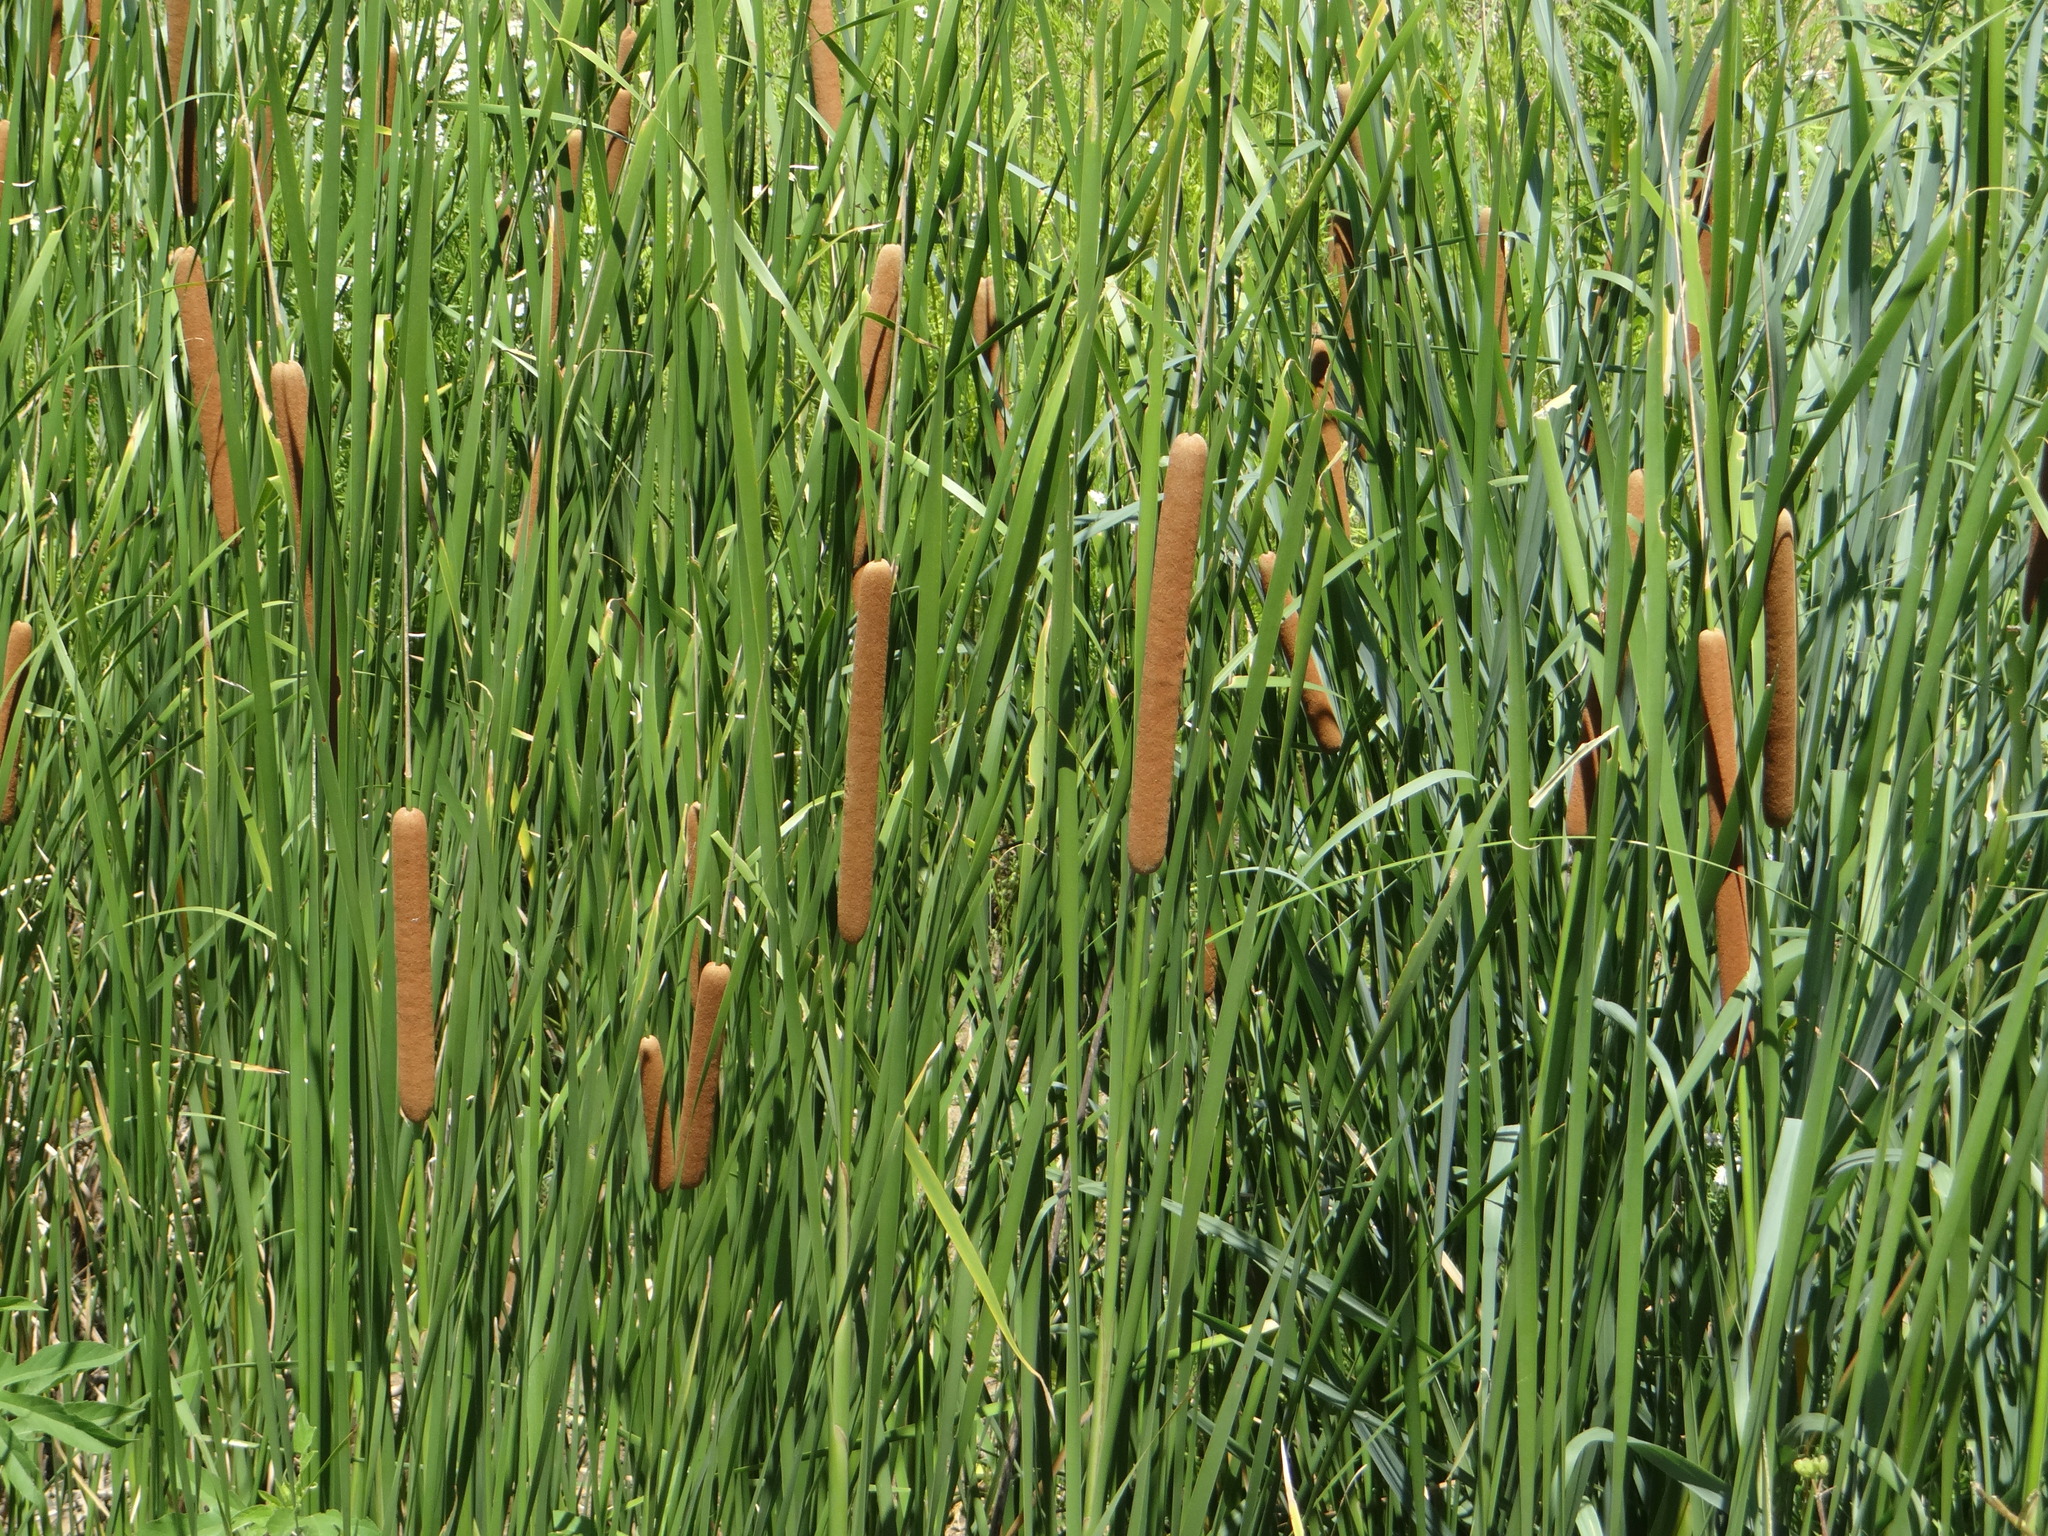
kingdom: Plantae
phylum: Tracheophyta
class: Liliopsida
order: Poales
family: Typhaceae
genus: Typha
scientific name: Typha domingensis
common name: Southern cattail
